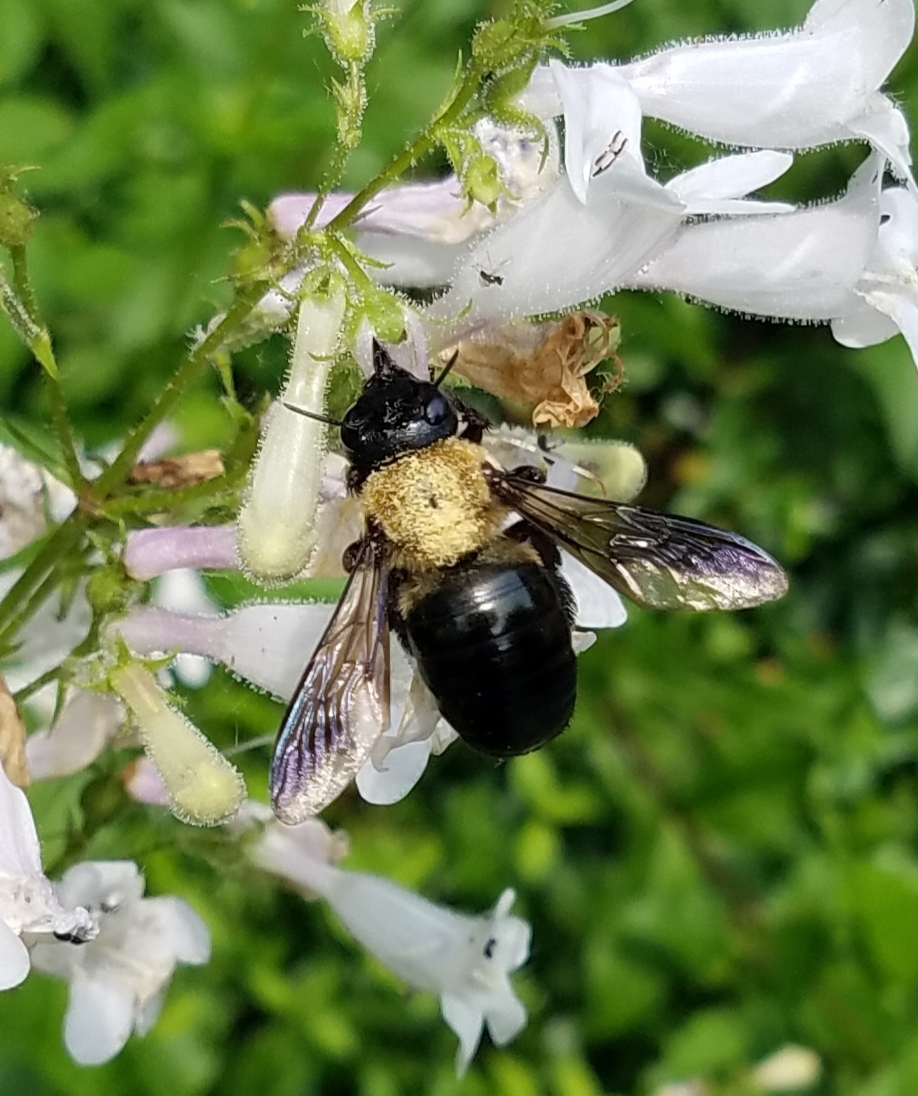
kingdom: Animalia
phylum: Arthropoda
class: Insecta
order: Hymenoptera
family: Apidae
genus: Xylocopa
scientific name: Xylocopa virginica
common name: Carpenter bee
